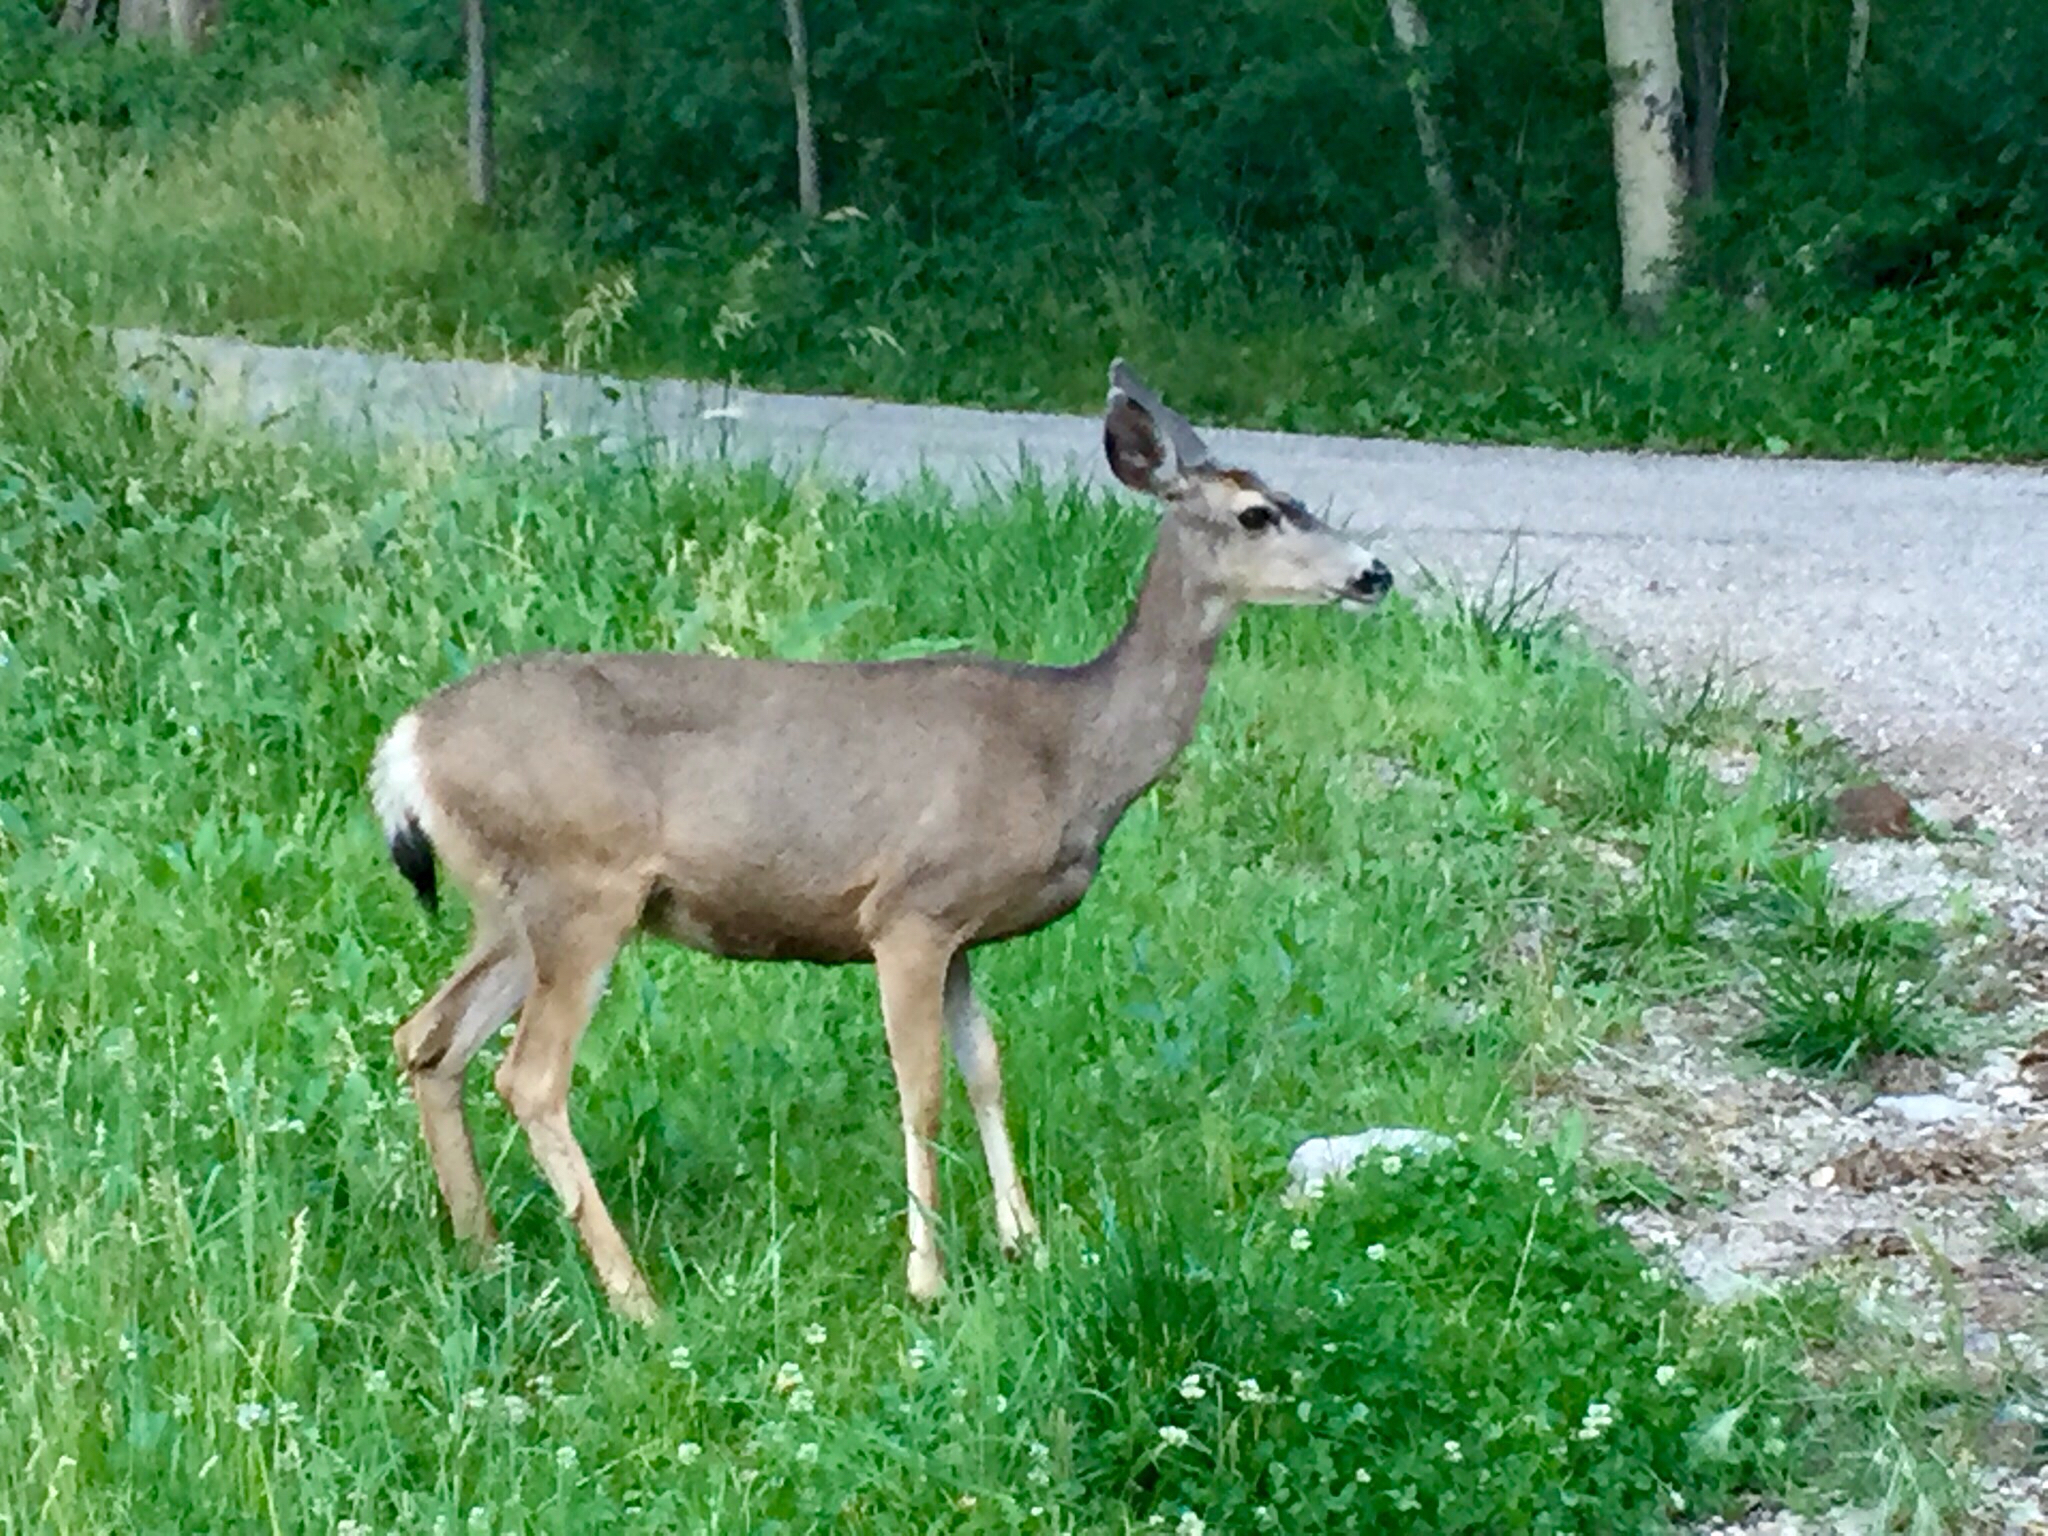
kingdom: Animalia
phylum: Chordata
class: Mammalia
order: Artiodactyla
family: Cervidae
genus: Odocoileus
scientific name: Odocoileus hemionus
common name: Mule deer
